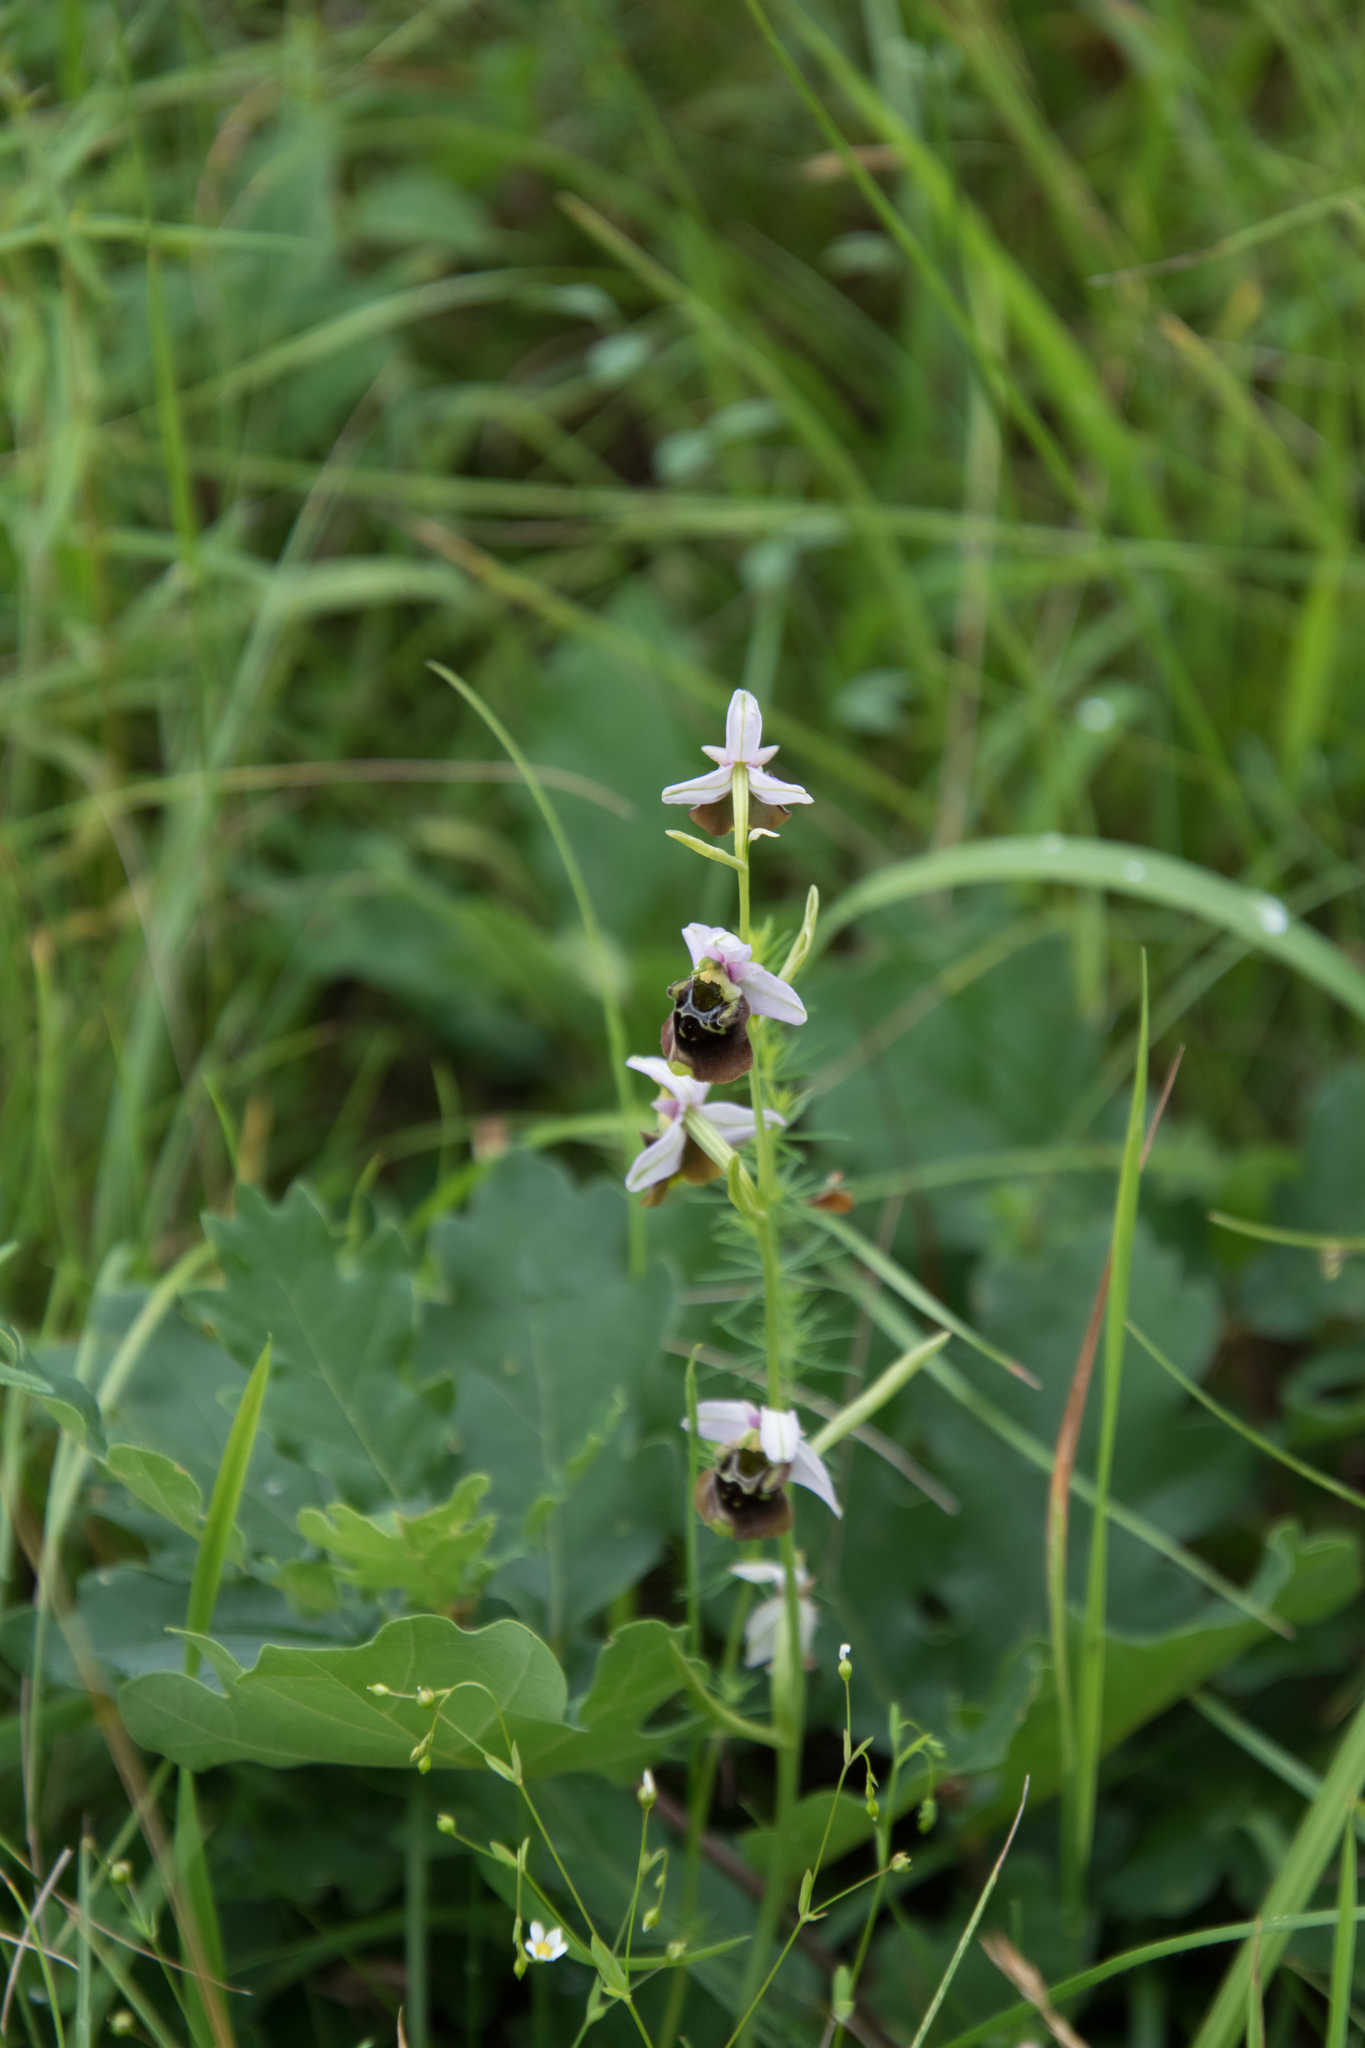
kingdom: Plantae
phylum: Tracheophyta
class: Liliopsida
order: Asparagales
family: Orchidaceae
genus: Ophrys
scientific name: Ophrys holosericea
